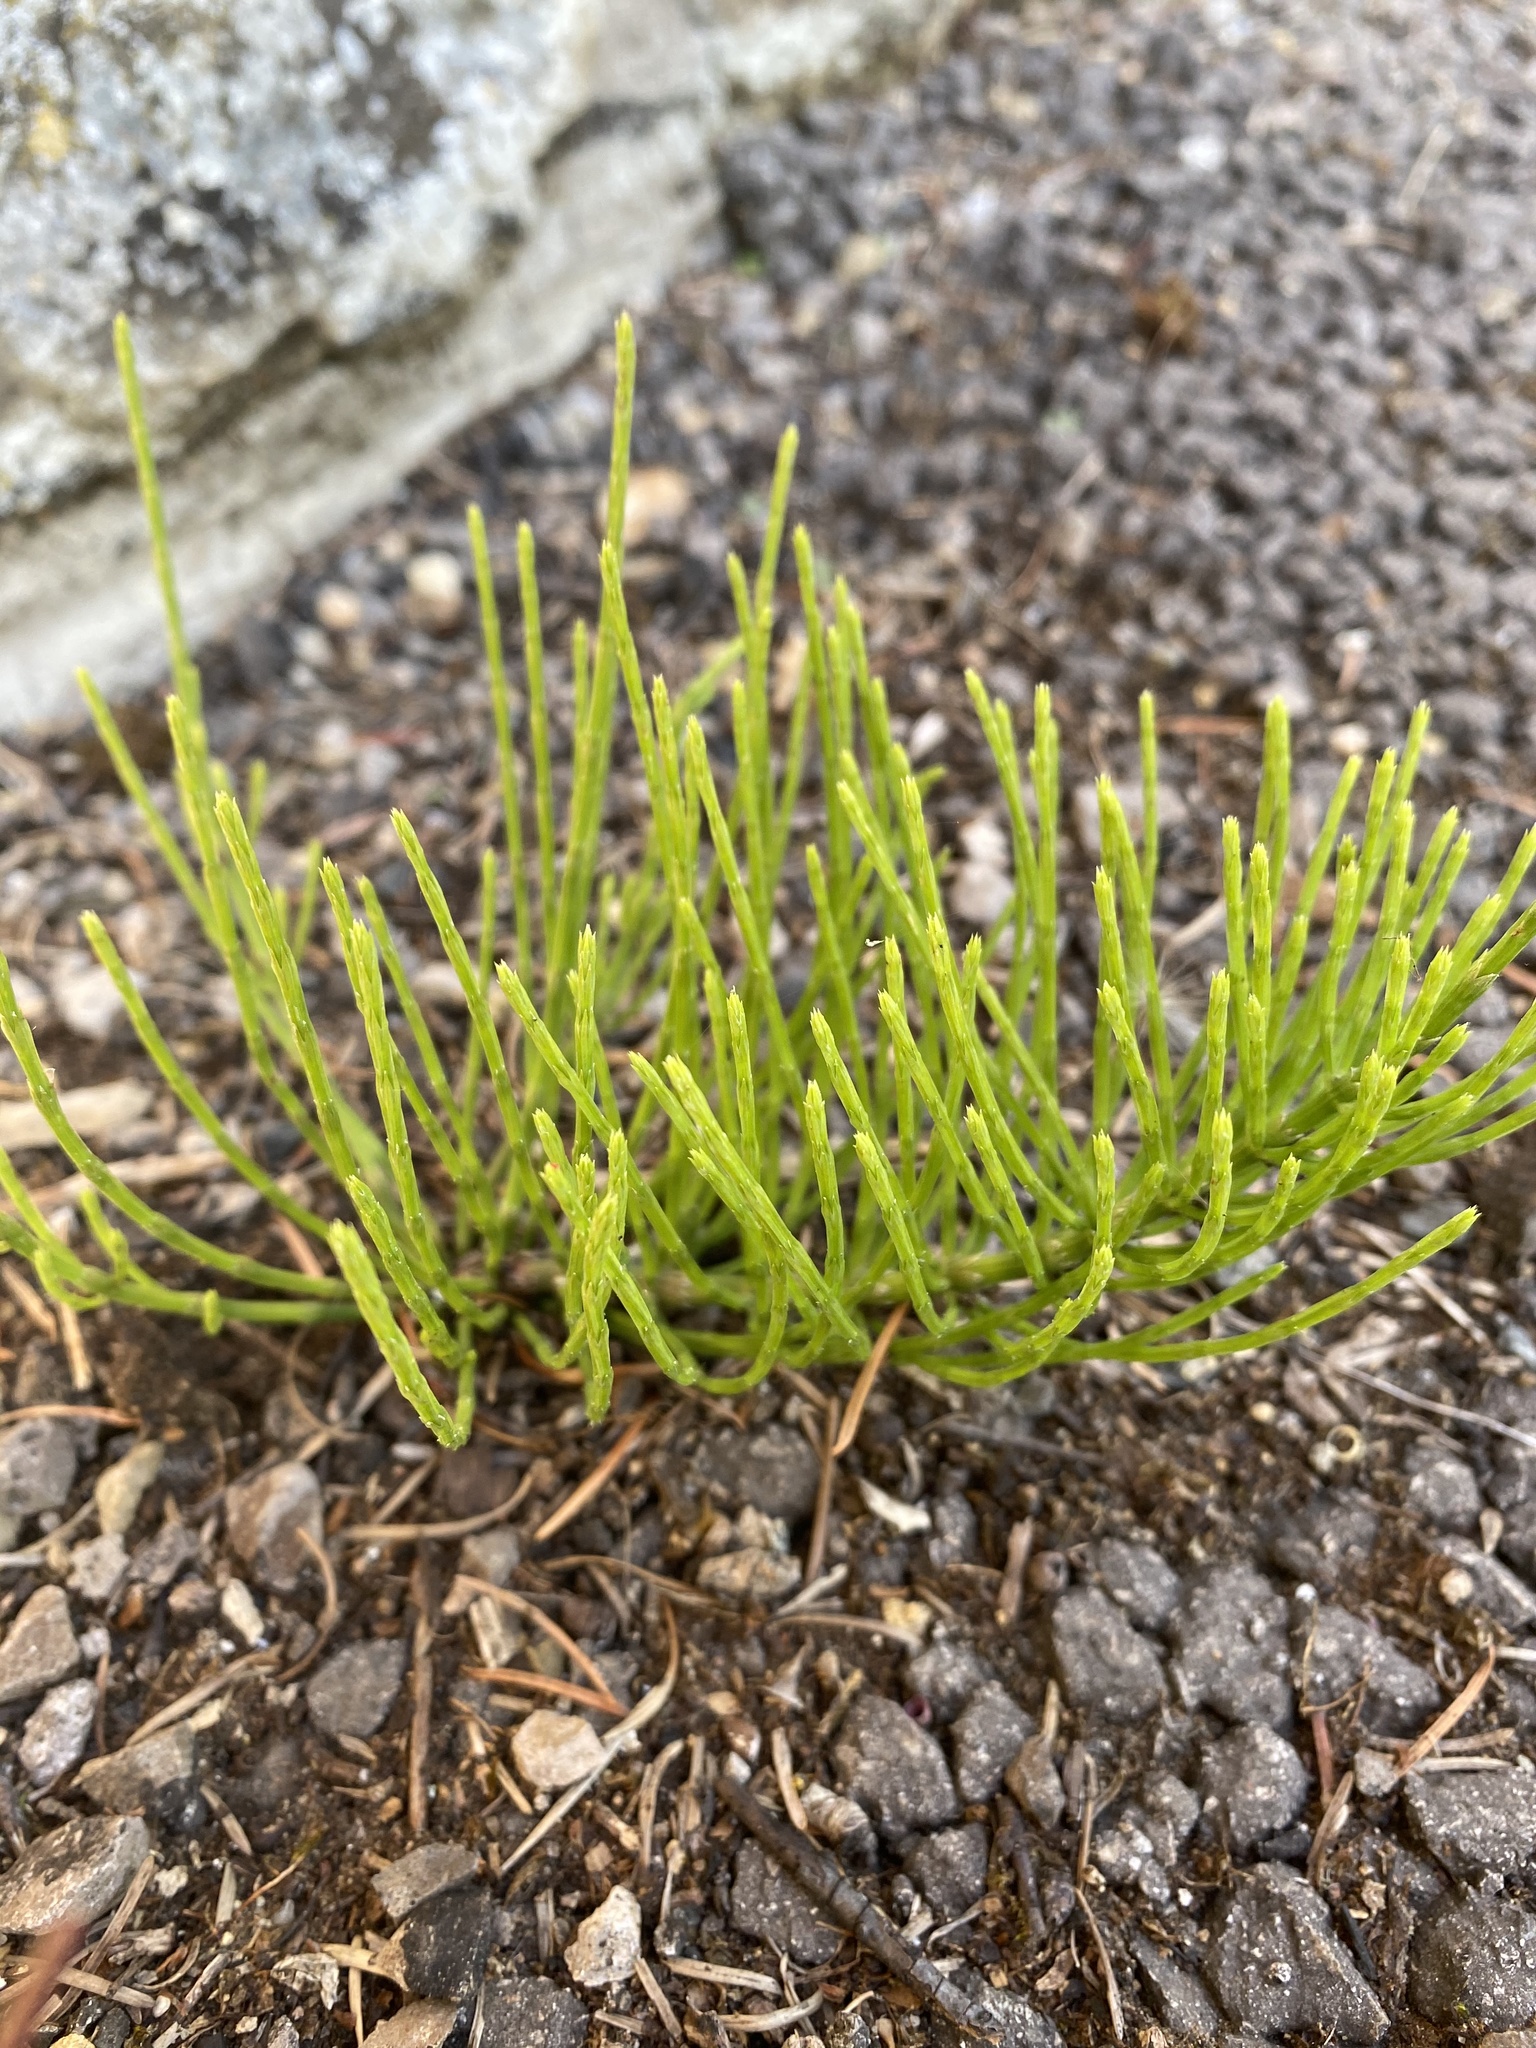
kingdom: Plantae
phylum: Tracheophyta
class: Polypodiopsida
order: Equisetales
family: Equisetaceae
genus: Equisetum
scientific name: Equisetum arvense
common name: Field horsetail
